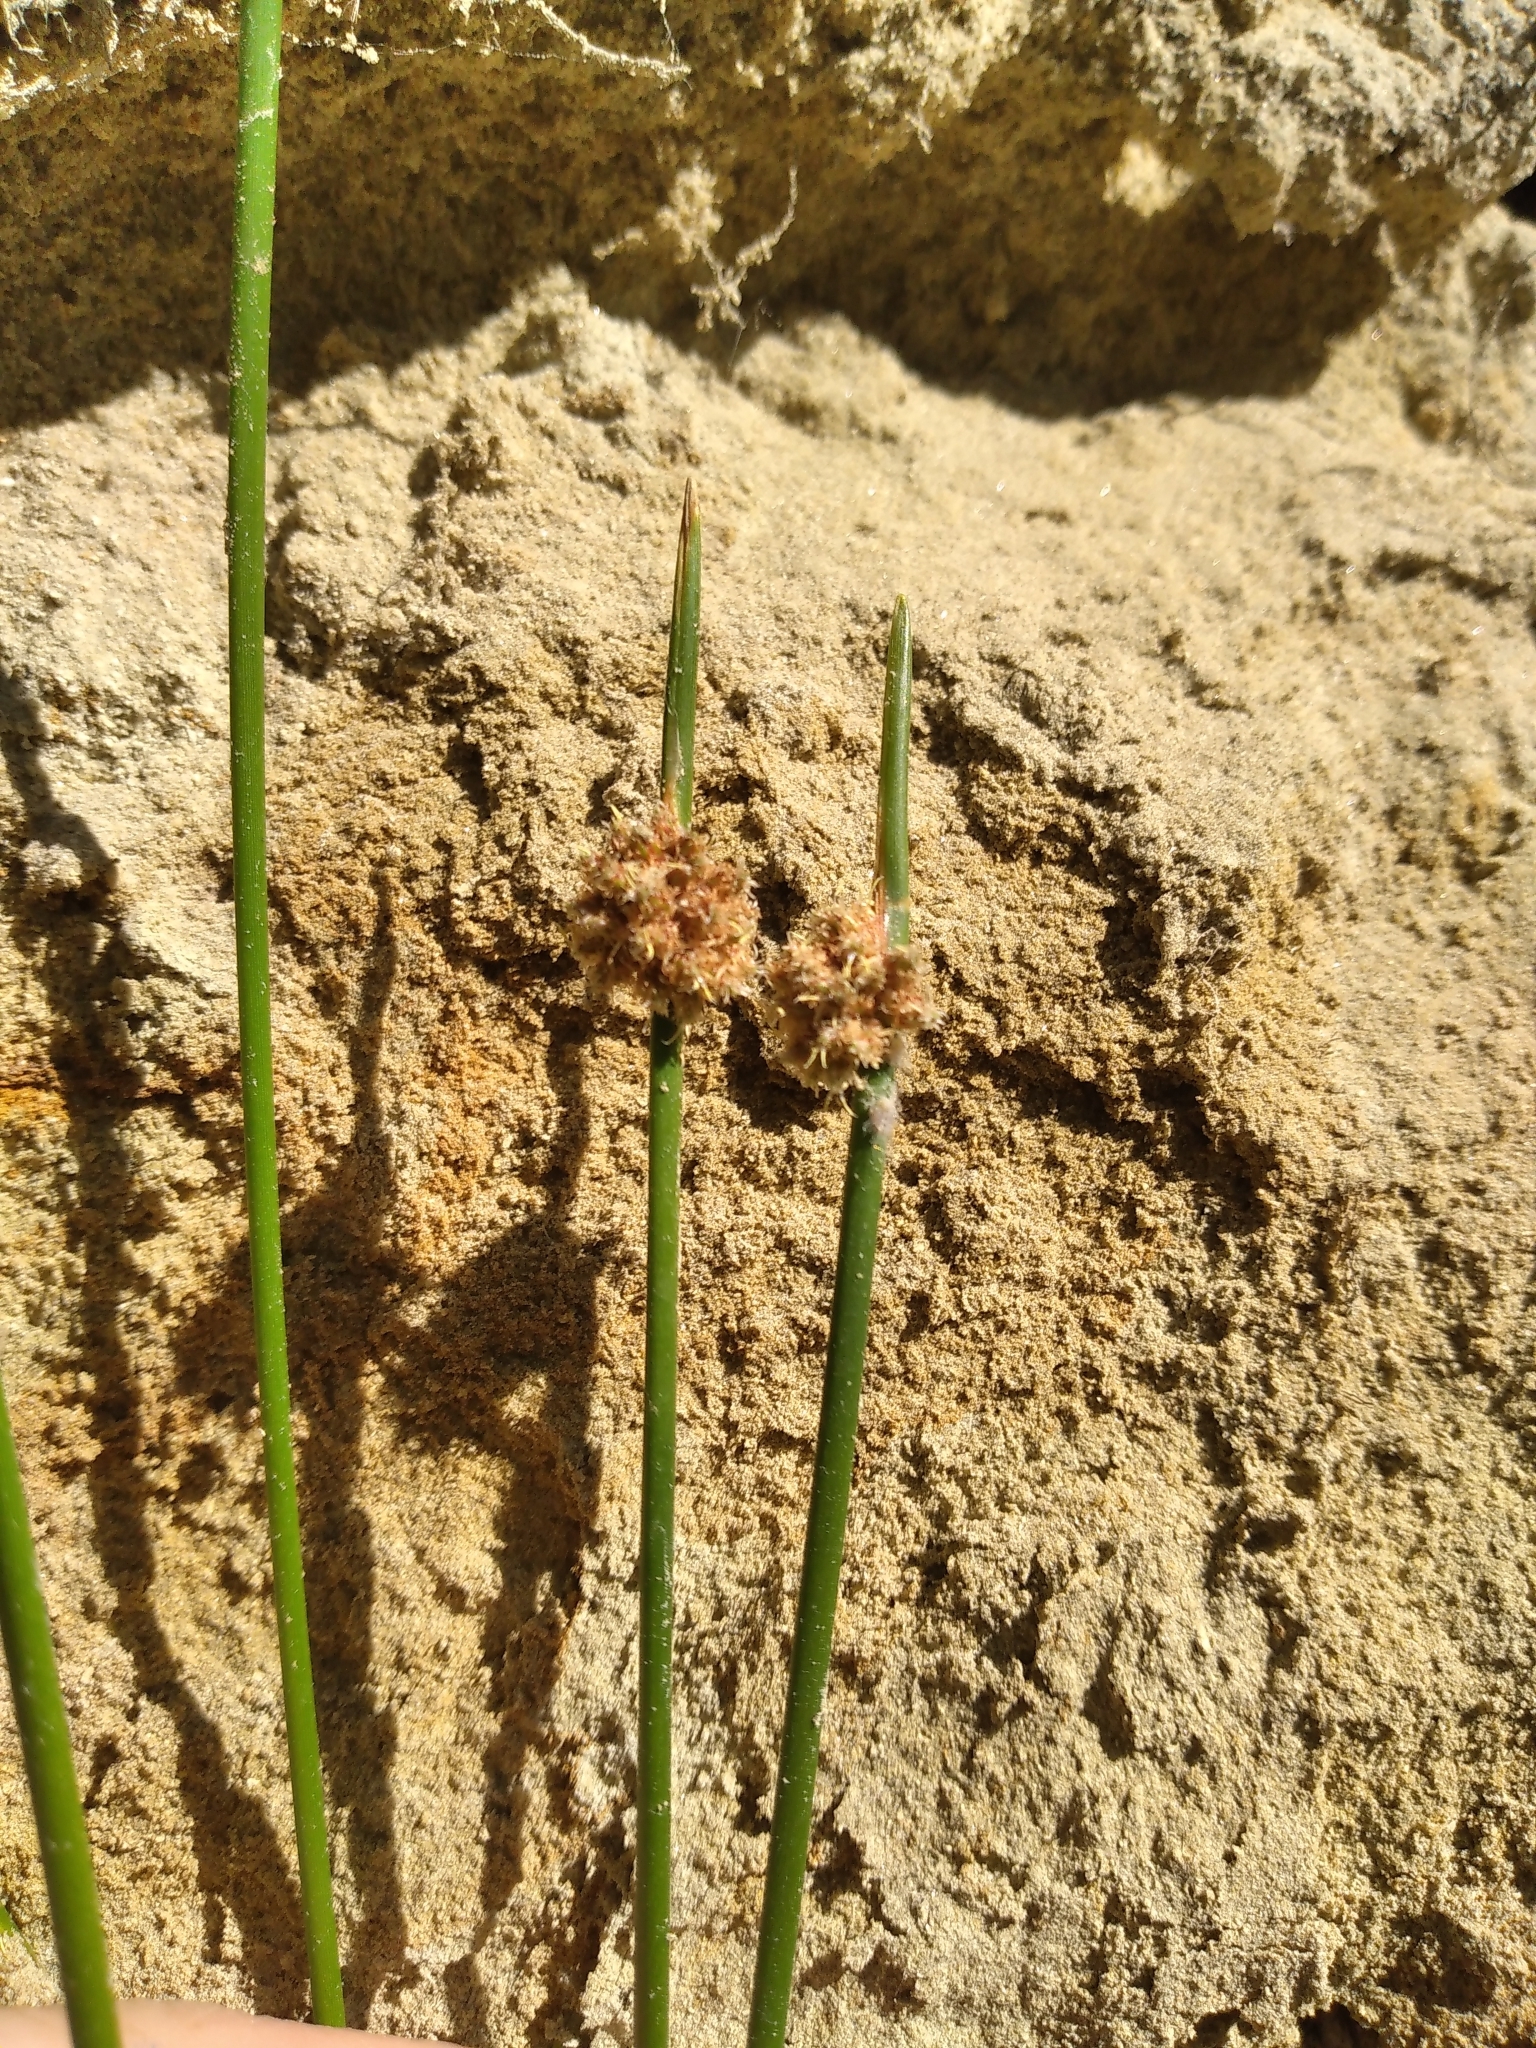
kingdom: Plantae
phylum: Tracheophyta
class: Liliopsida
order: Poales
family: Cyperaceae
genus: Ficinia
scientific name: Ficinia nodosa
